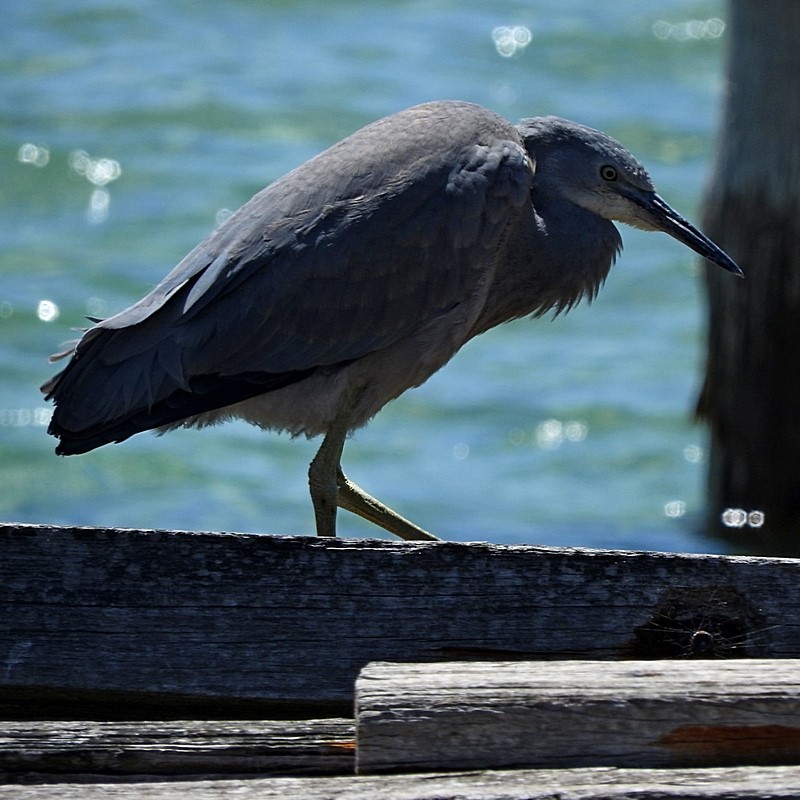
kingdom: Animalia
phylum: Chordata
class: Aves
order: Pelecaniformes
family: Ardeidae
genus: Egretta
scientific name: Egretta novaehollandiae
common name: White-faced heron
